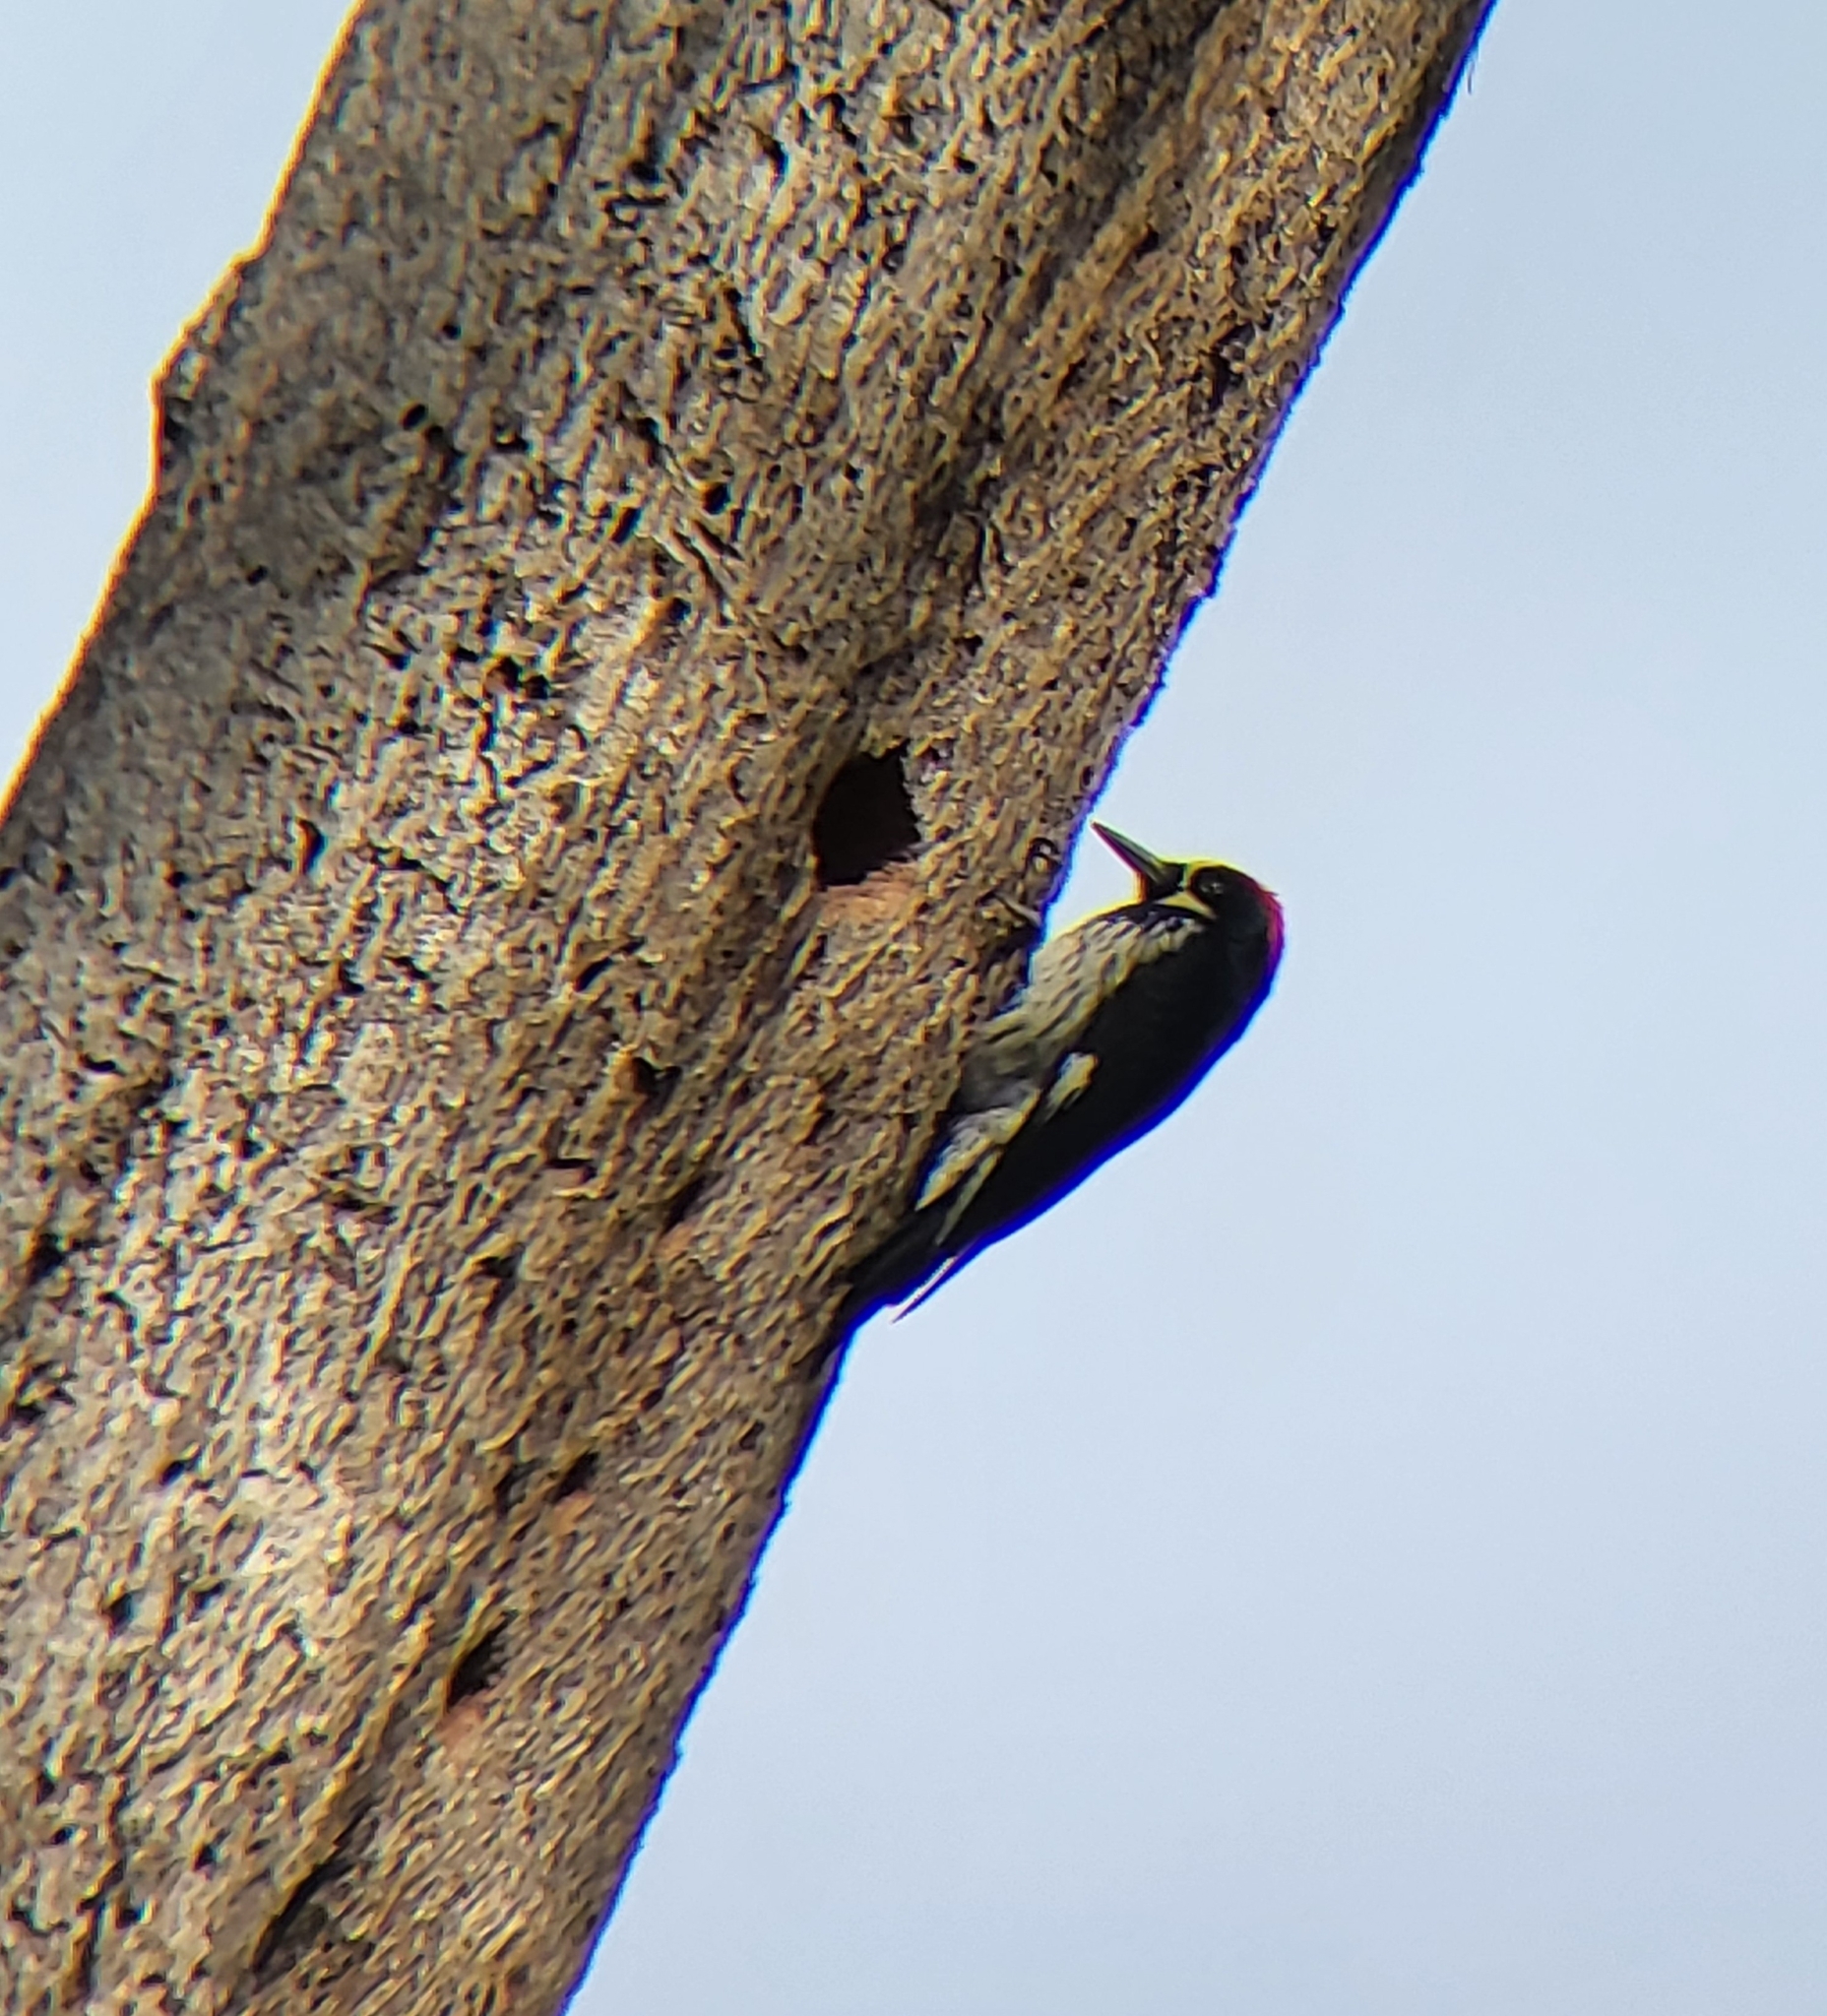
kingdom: Animalia
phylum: Chordata
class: Aves
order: Piciformes
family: Picidae
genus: Melanerpes
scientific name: Melanerpes formicivorus
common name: Acorn woodpecker
